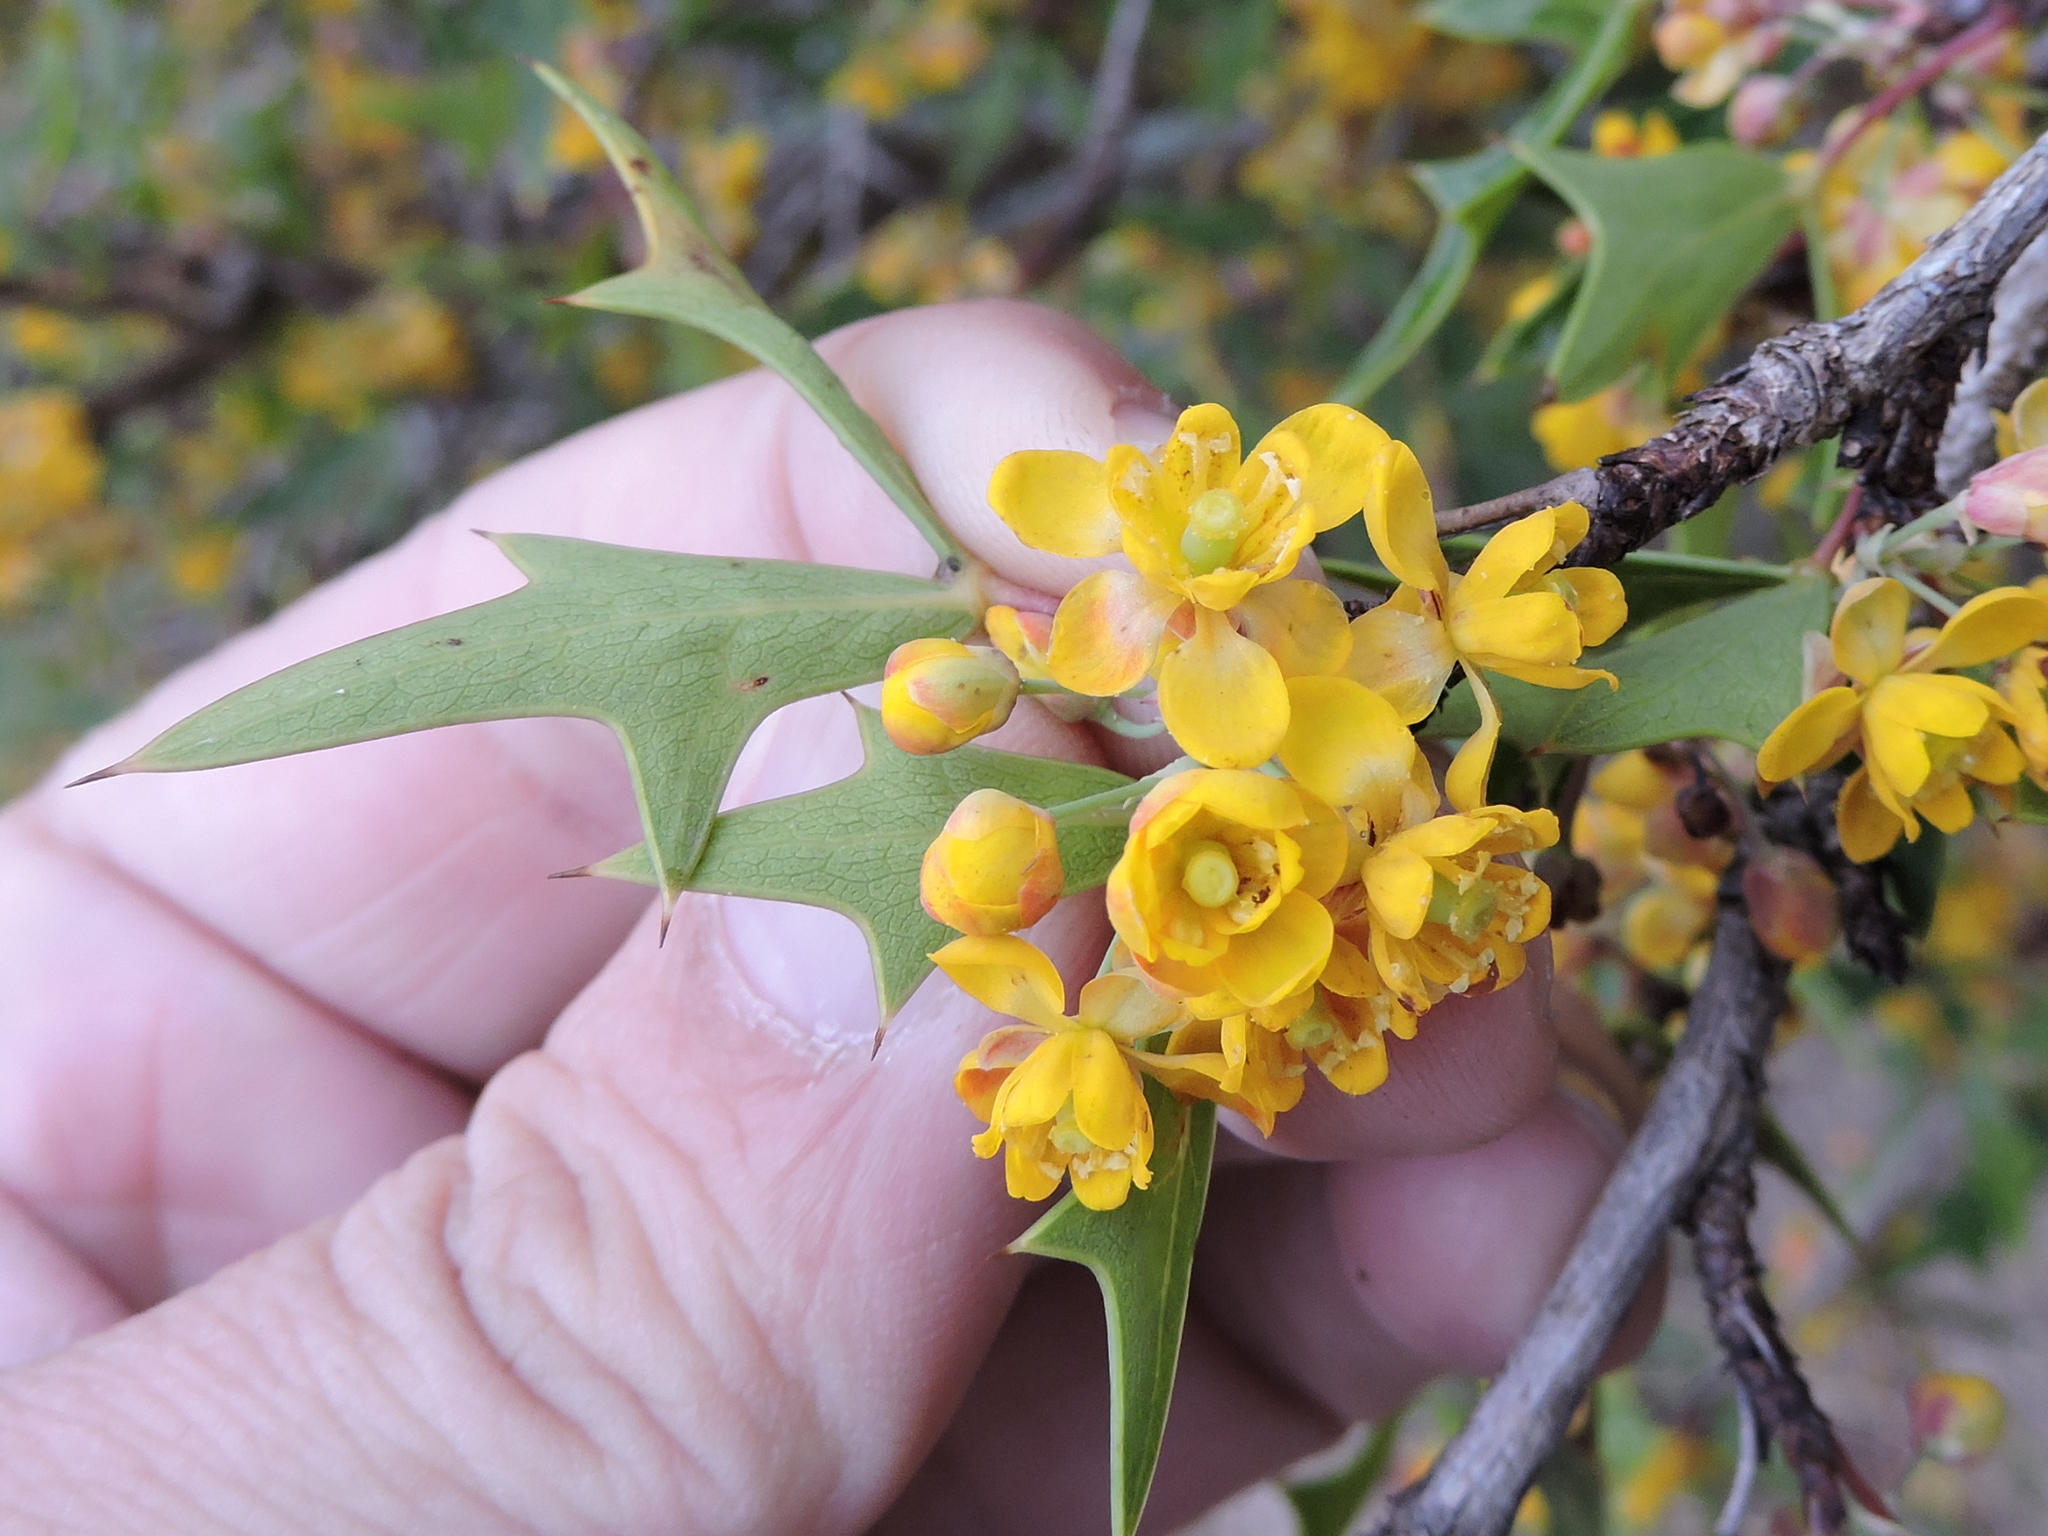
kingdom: Plantae
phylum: Tracheophyta
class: Magnoliopsida
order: Ranunculales
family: Berberidaceae
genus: Alloberberis
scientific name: Alloberberis trifoliolata
